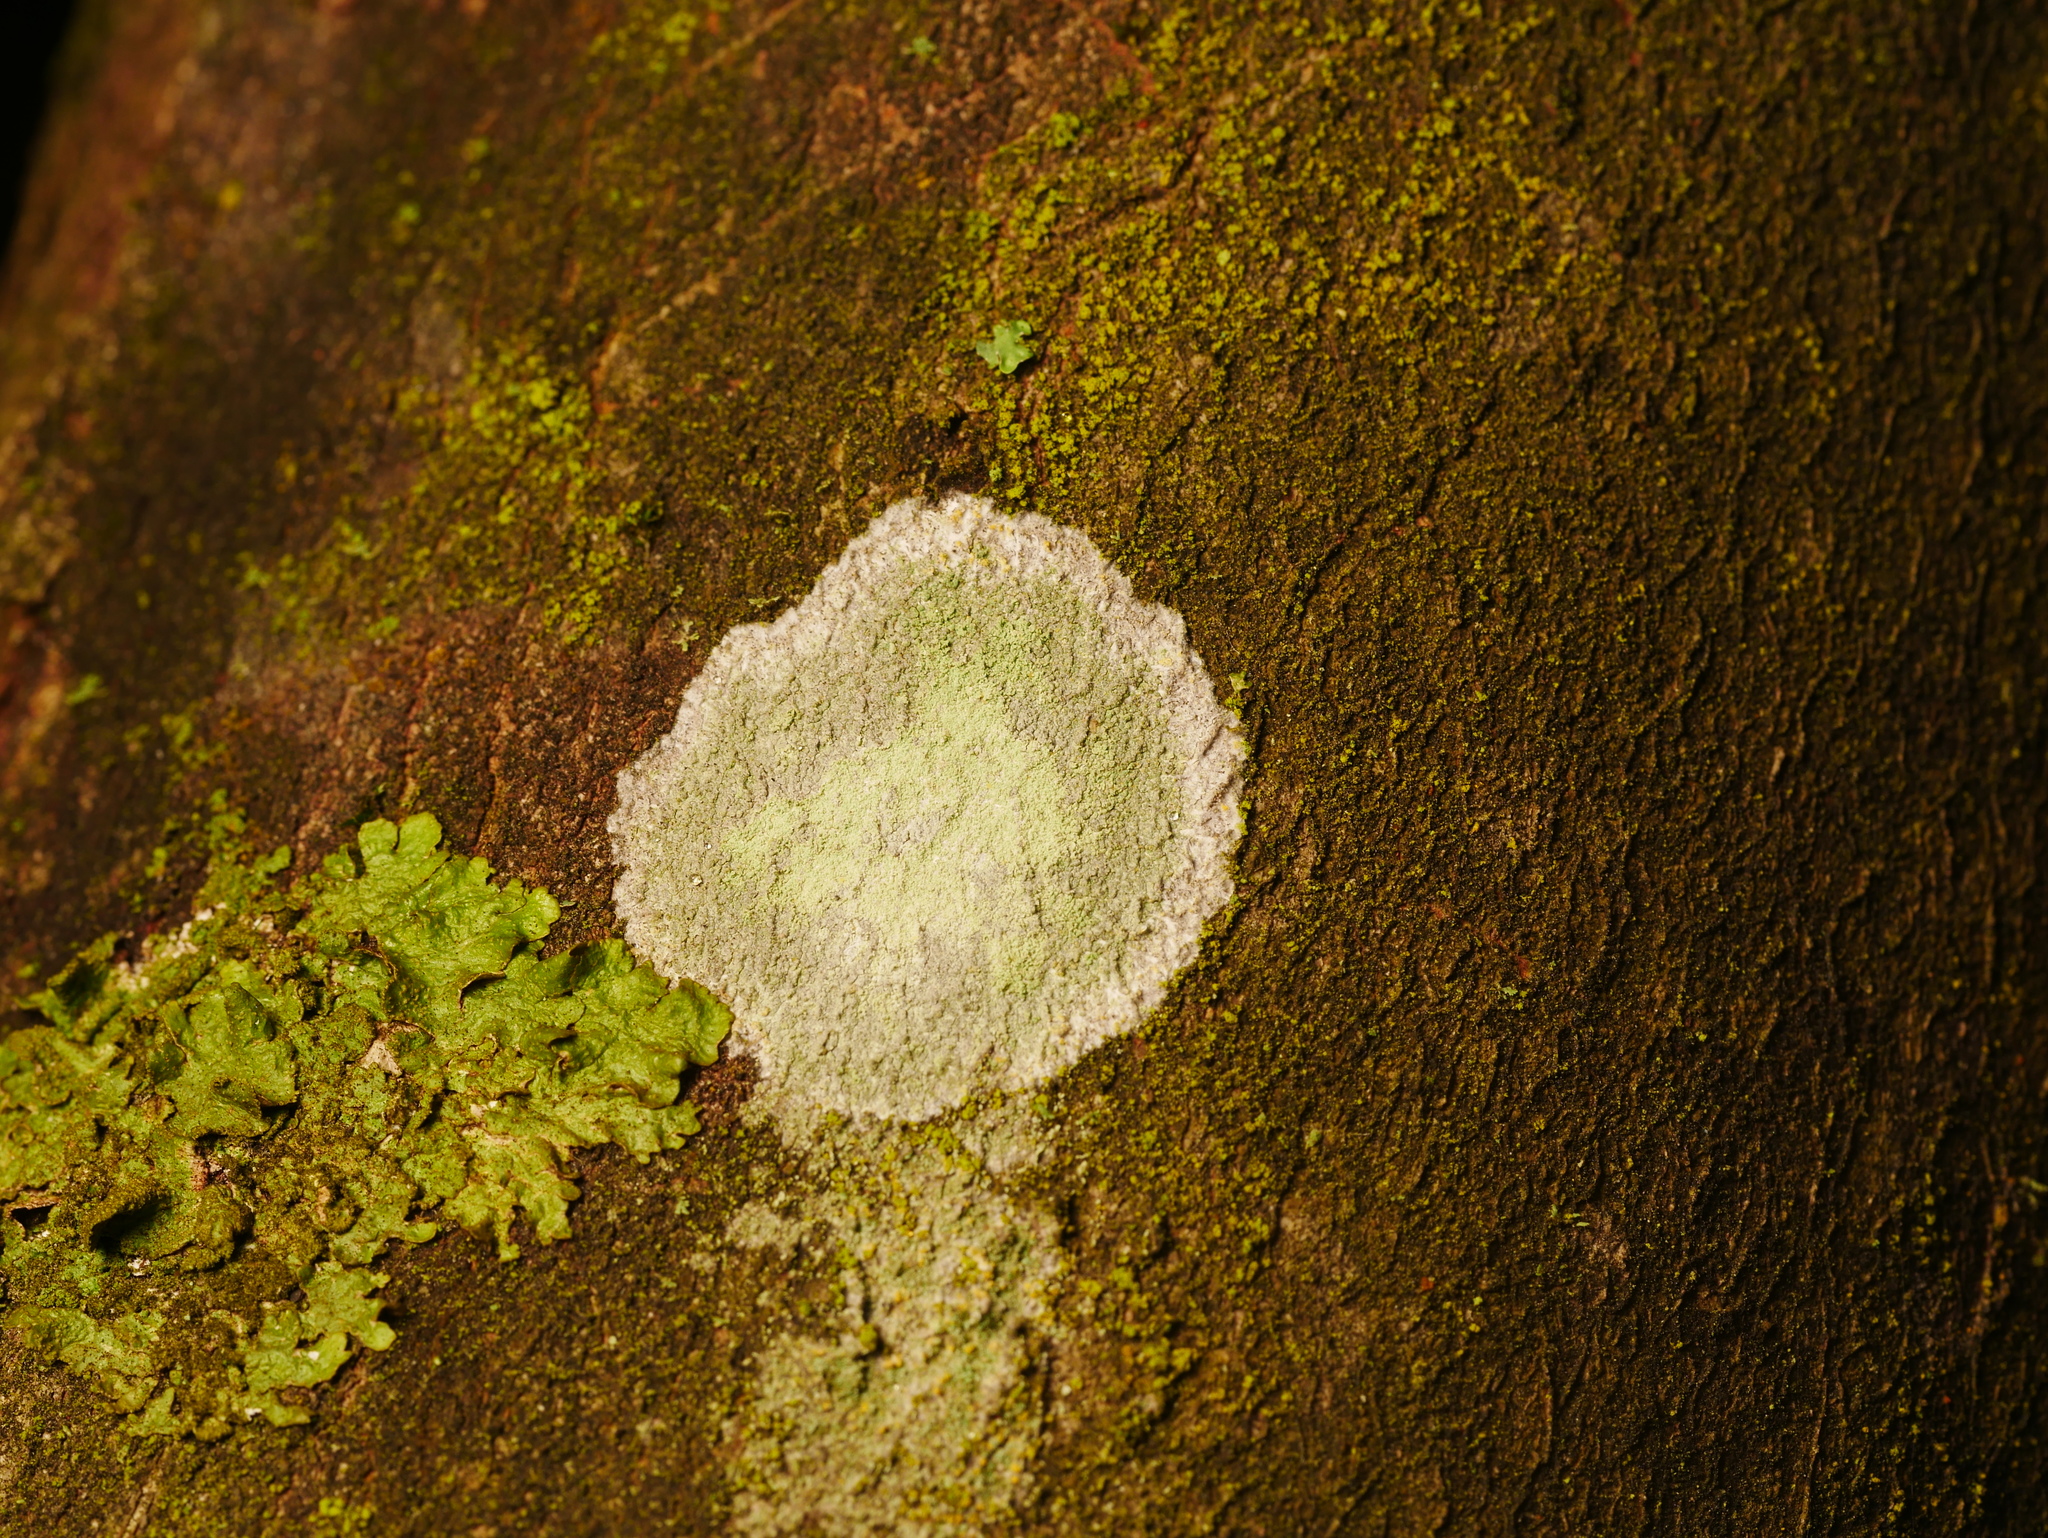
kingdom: Fungi
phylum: Ascomycota
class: Lecanoromycetes
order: Ostropales
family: Phlyctidaceae
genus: Phlyctis
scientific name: Phlyctis argena
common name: Whitewash lichen
